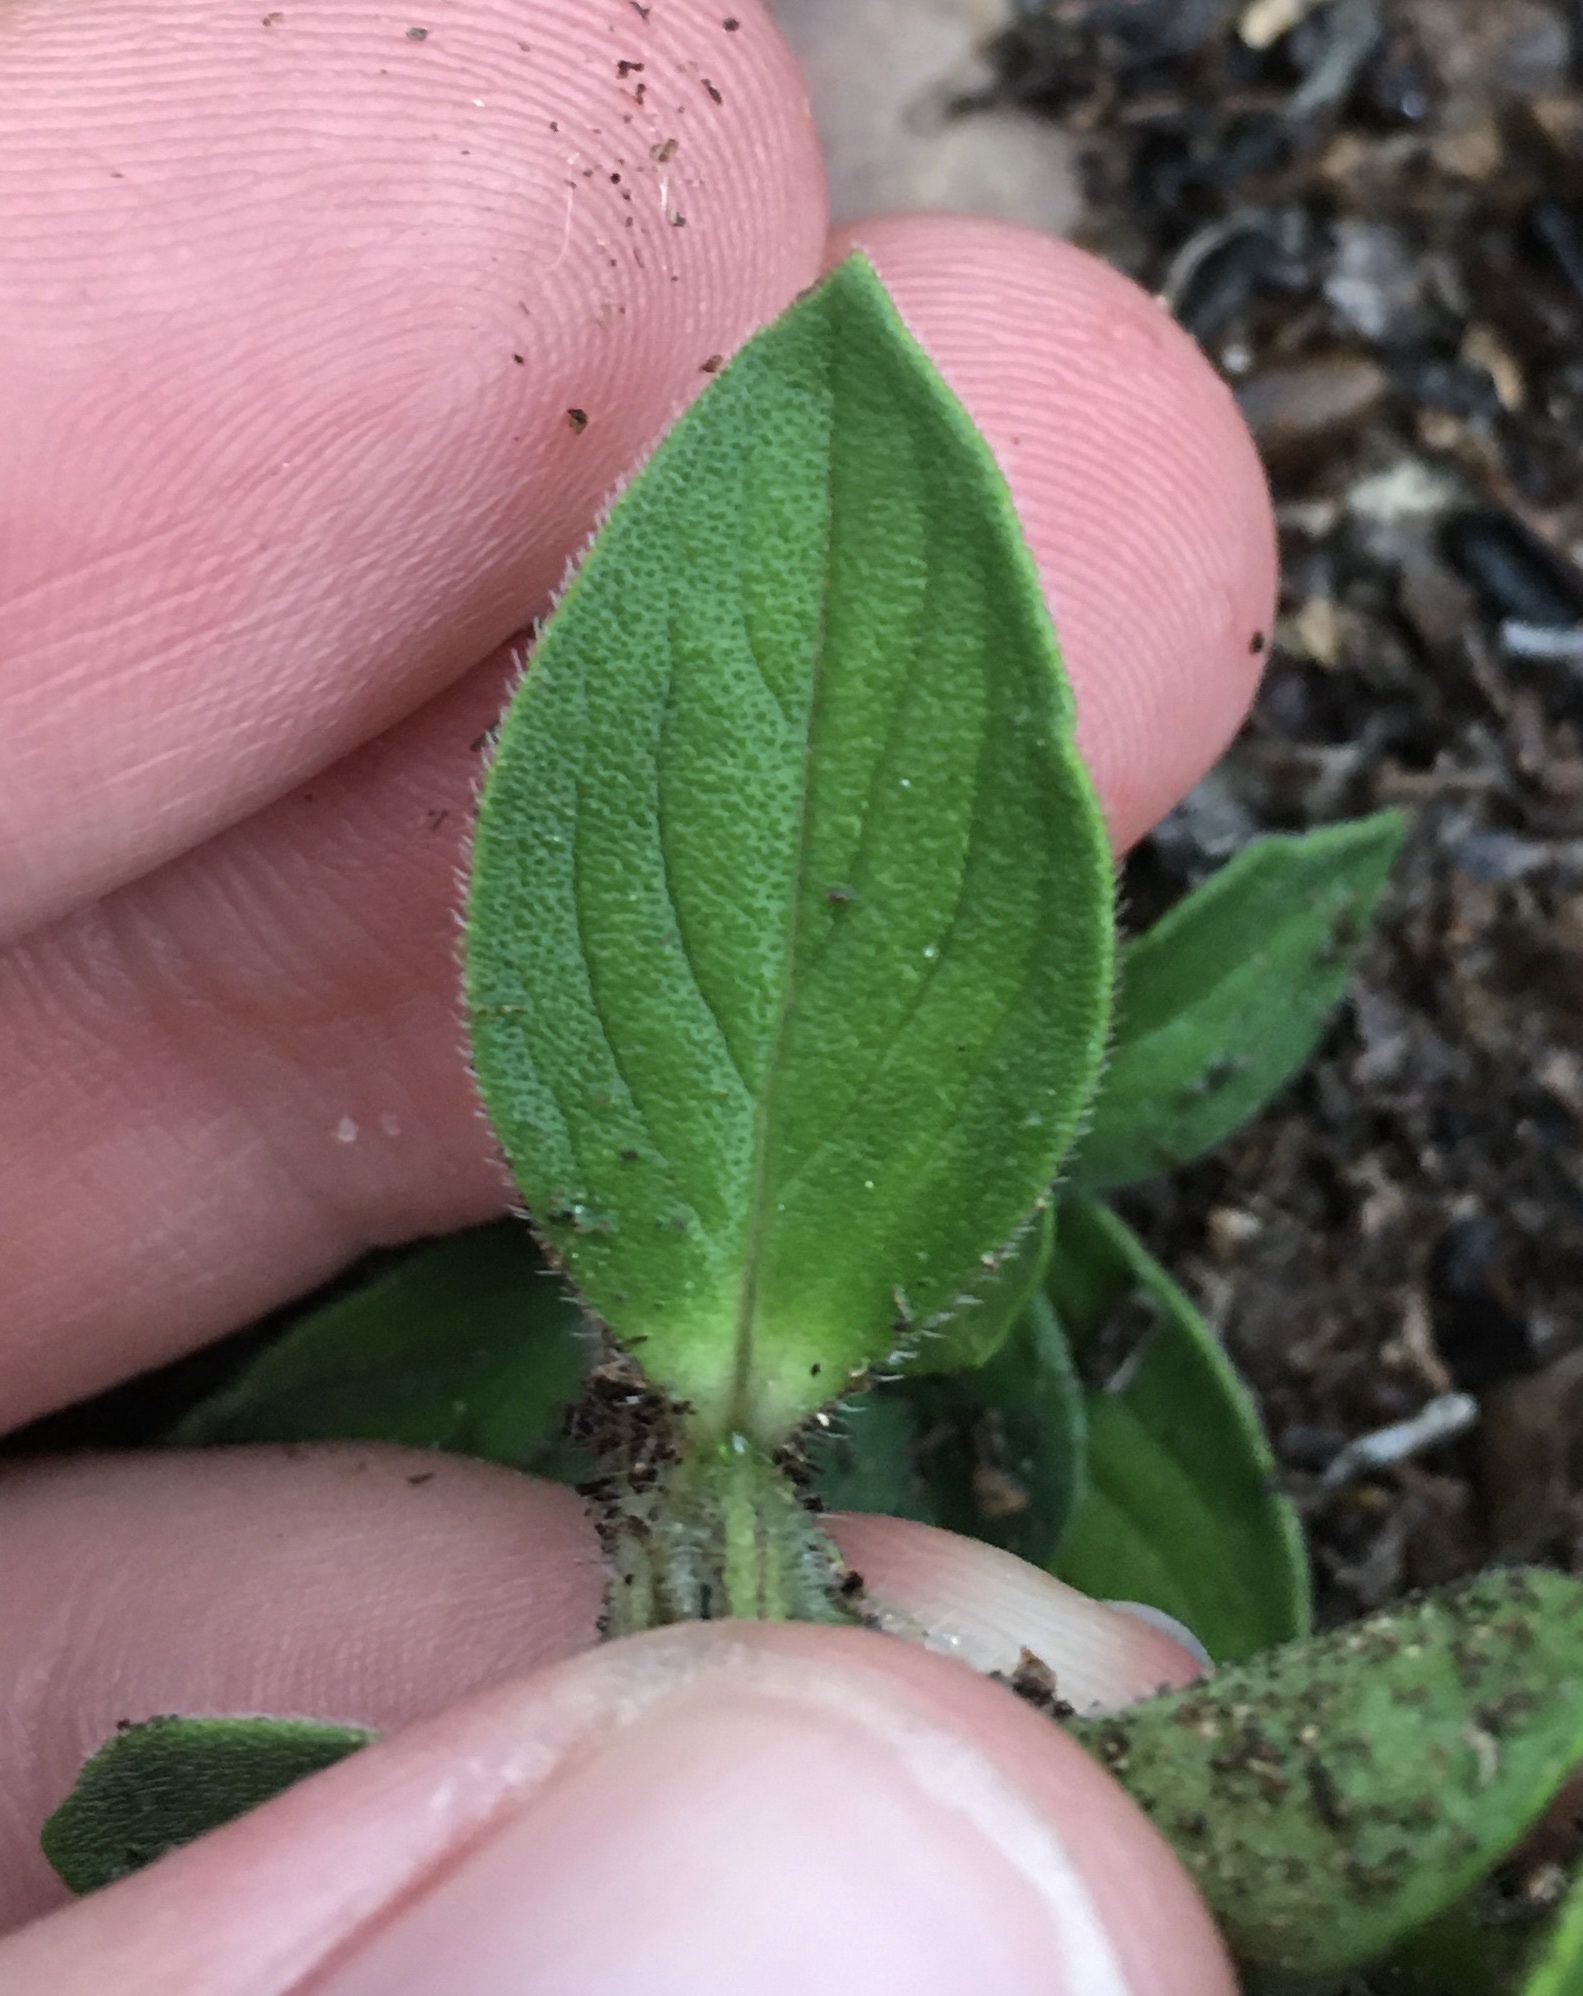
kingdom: Plantae
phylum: Tracheophyta
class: Magnoliopsida
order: Gentianales
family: Rubiaceae
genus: Richardia
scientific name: Richardia brasiliensis
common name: Tropical mexican clover
